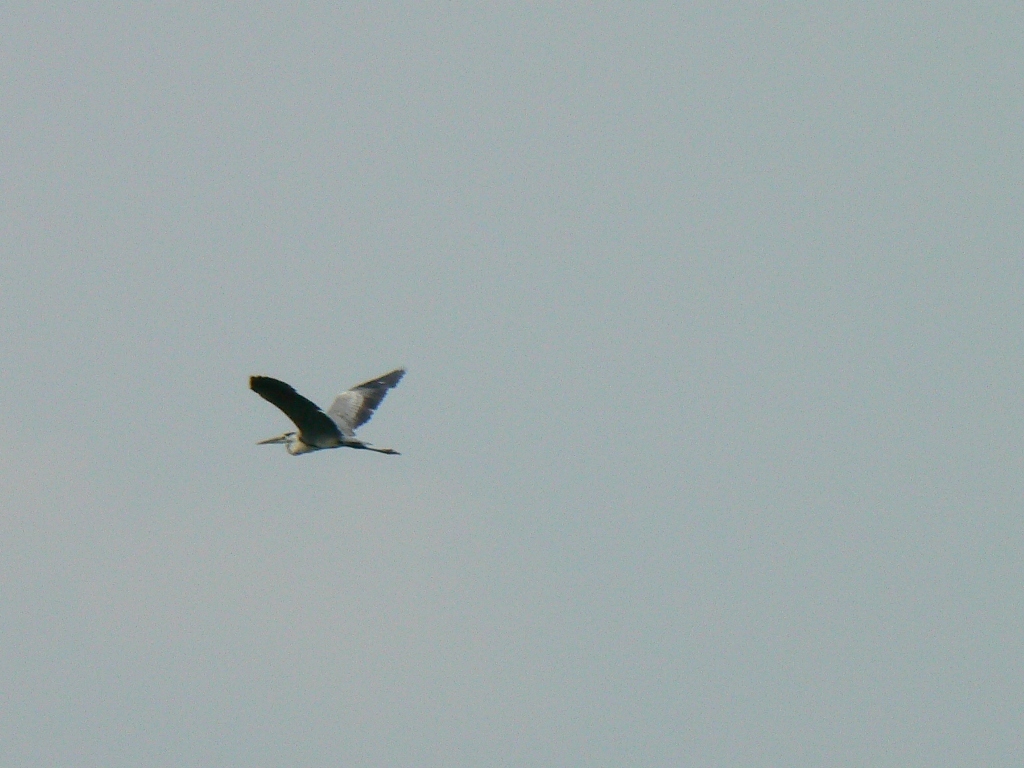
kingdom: Animalia
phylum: Chordata
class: Aves
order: Pelecaniformes
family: Ardeidae
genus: Ardea
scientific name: Ardea cinerea
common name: Grey heron
